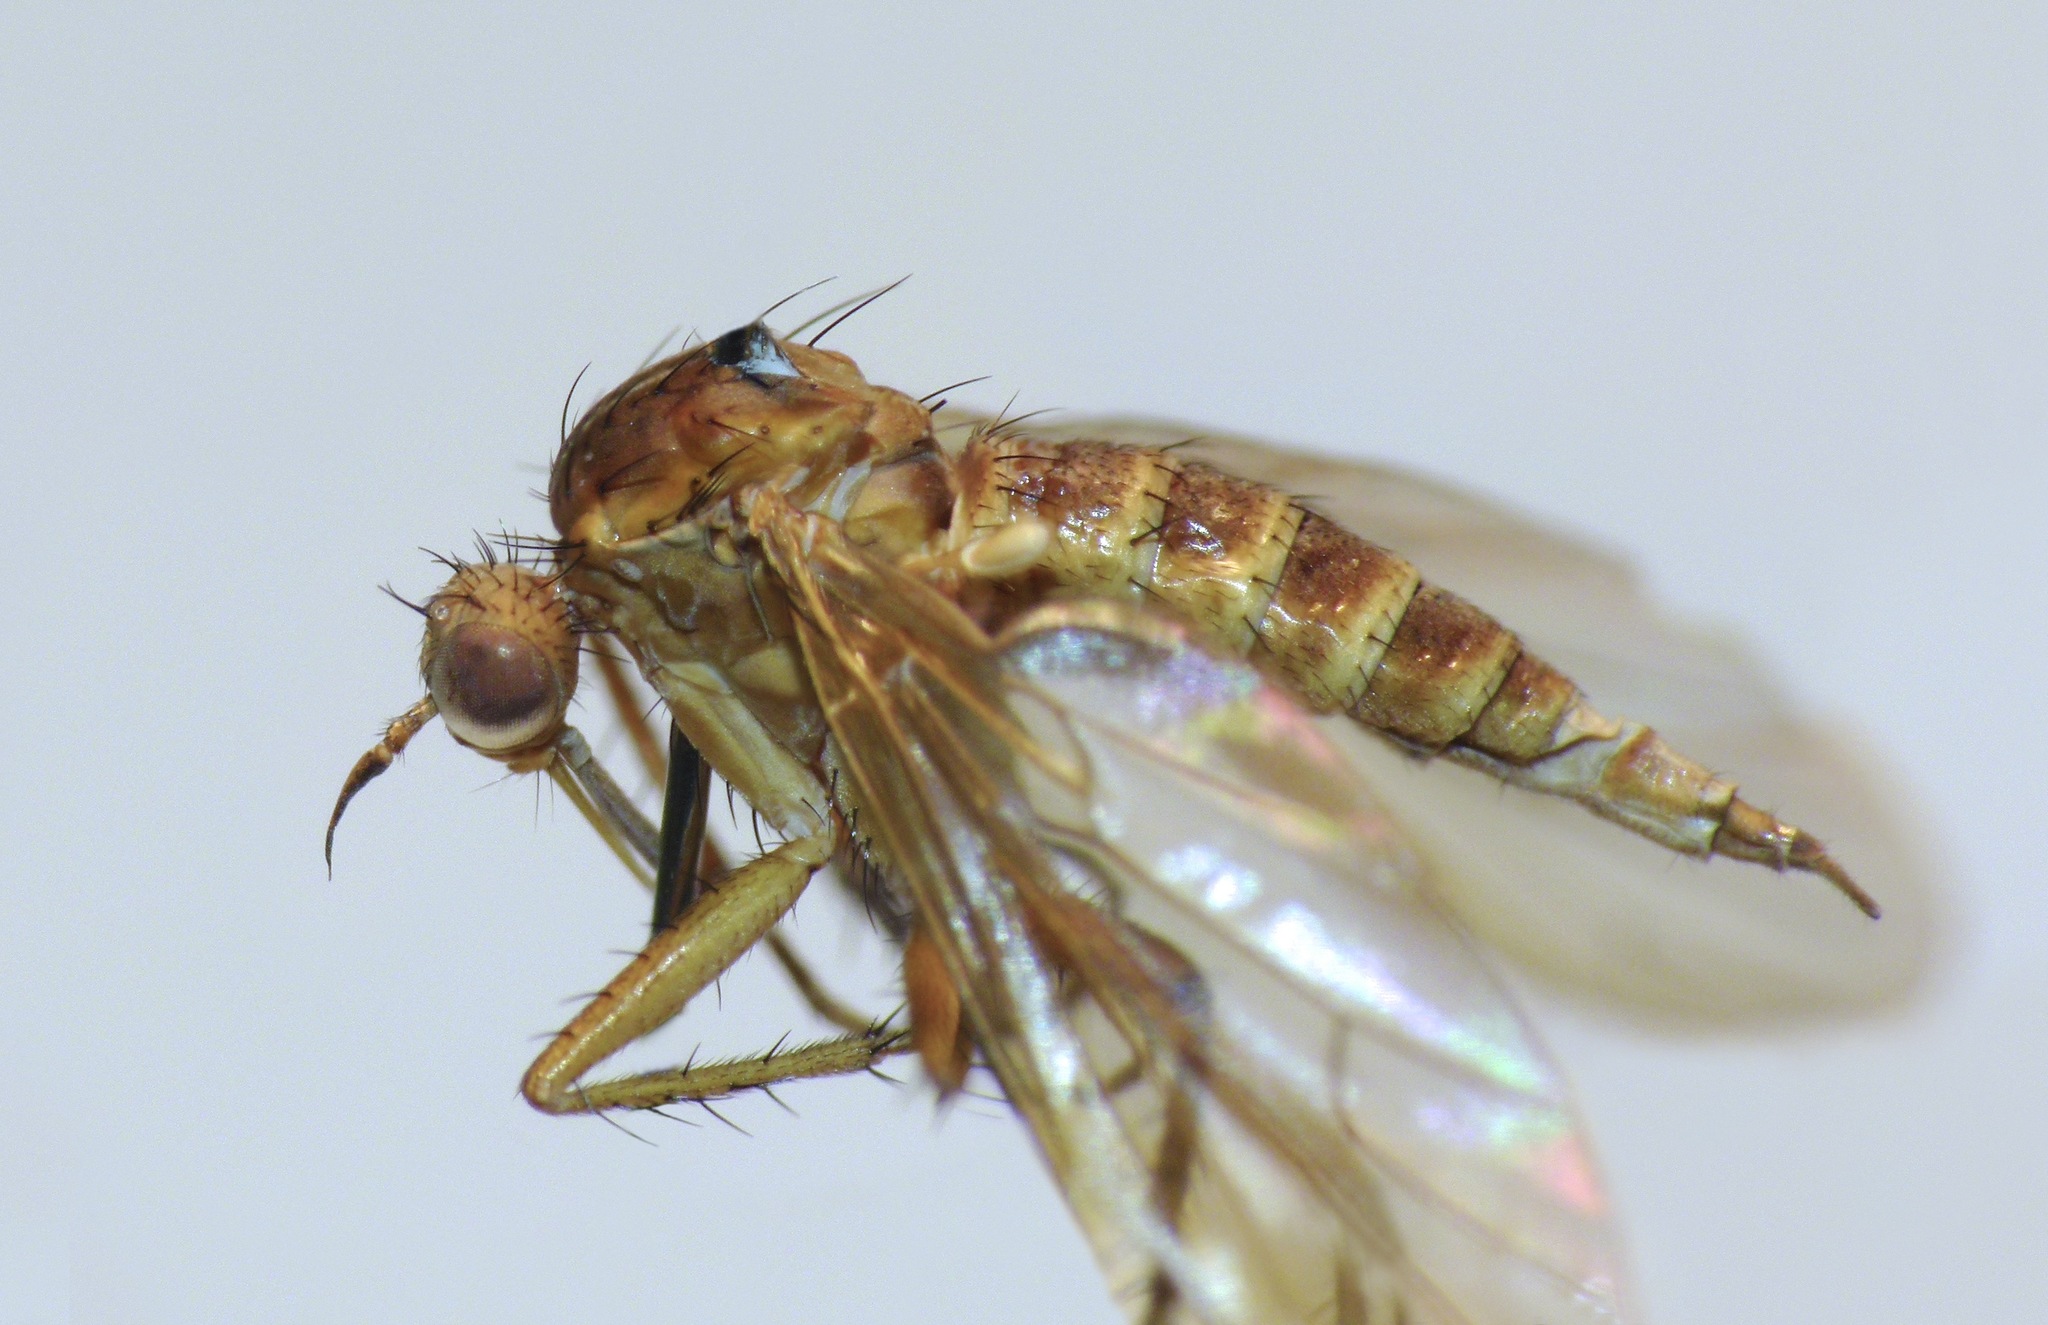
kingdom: Animalia
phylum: Arthropoda
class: Insecta
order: Diptera
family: Empididae
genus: Empidadelpha
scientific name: Empidadelpha torrentalis
